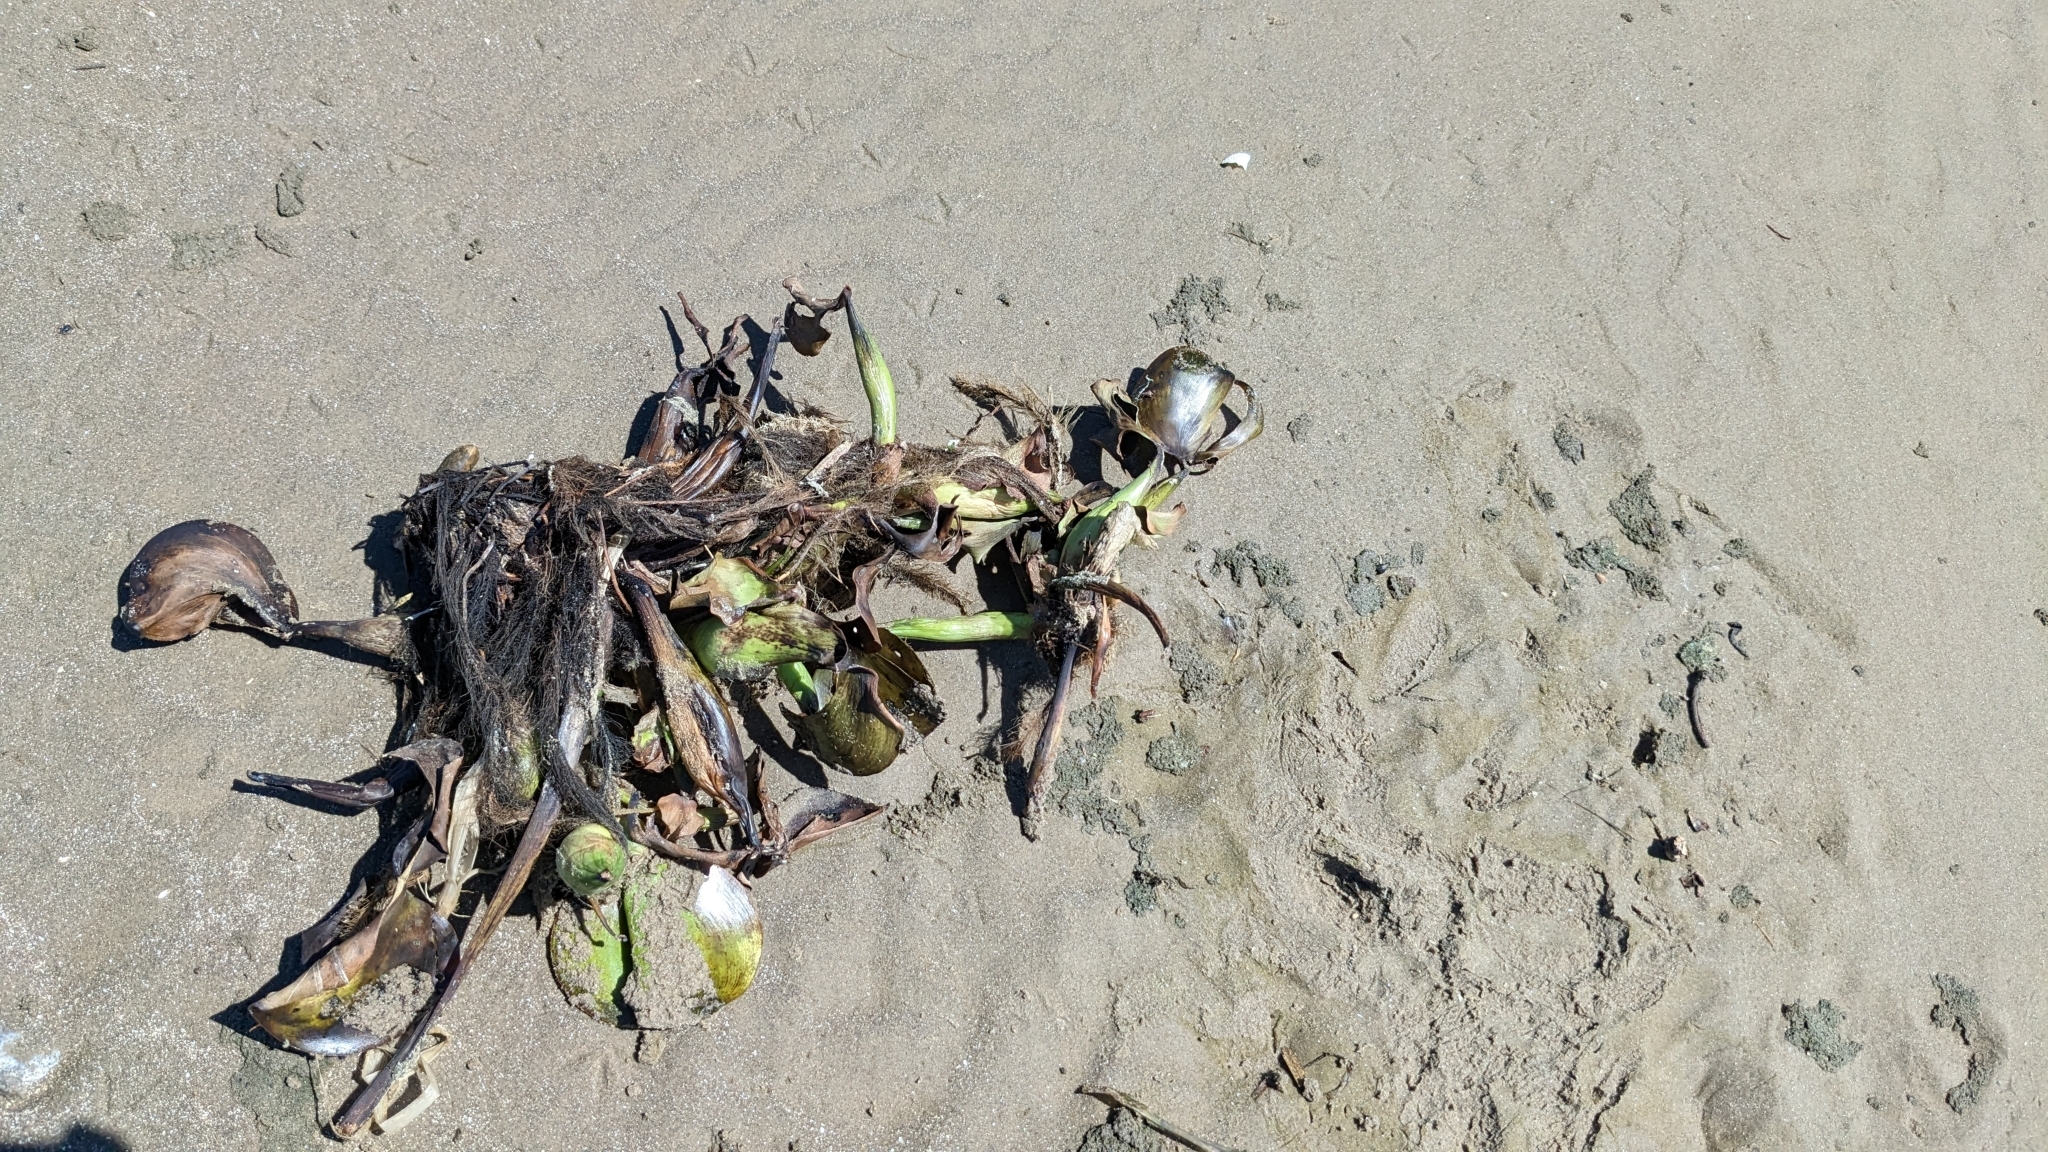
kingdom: Plantae
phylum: Tracheophyta
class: Liliopsida
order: Commelinales
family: Pontederiaceae
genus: Pontederia
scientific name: Pontederia crassipes
